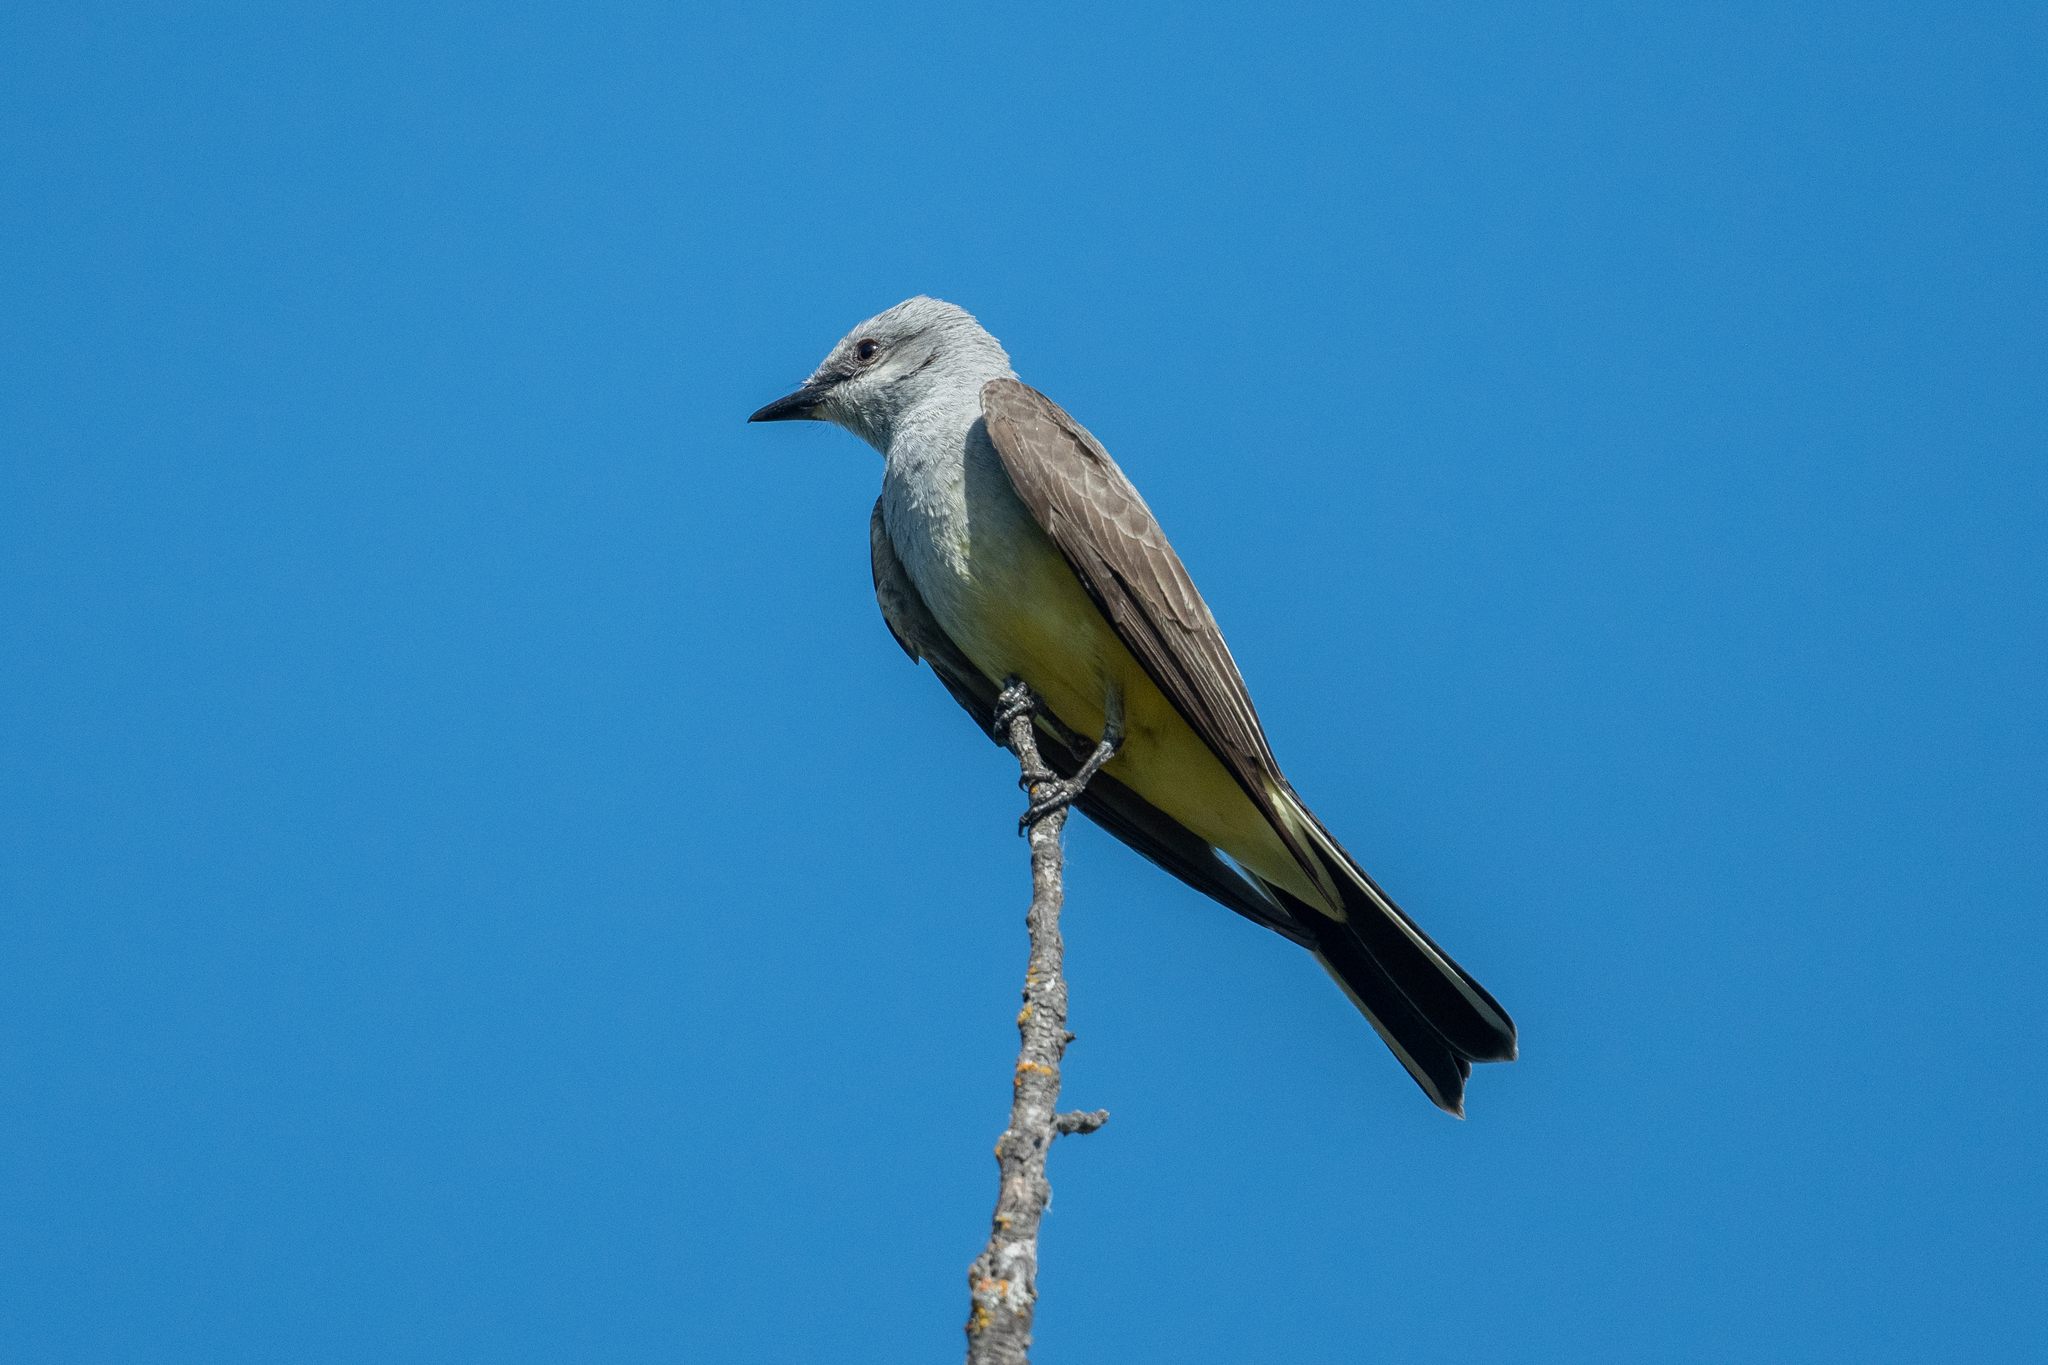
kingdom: Animalia
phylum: Chordata
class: Aves
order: Passeriformes
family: Tyrannidae
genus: Tyrannus
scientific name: Tyrannus verticalis
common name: Western kingbird
